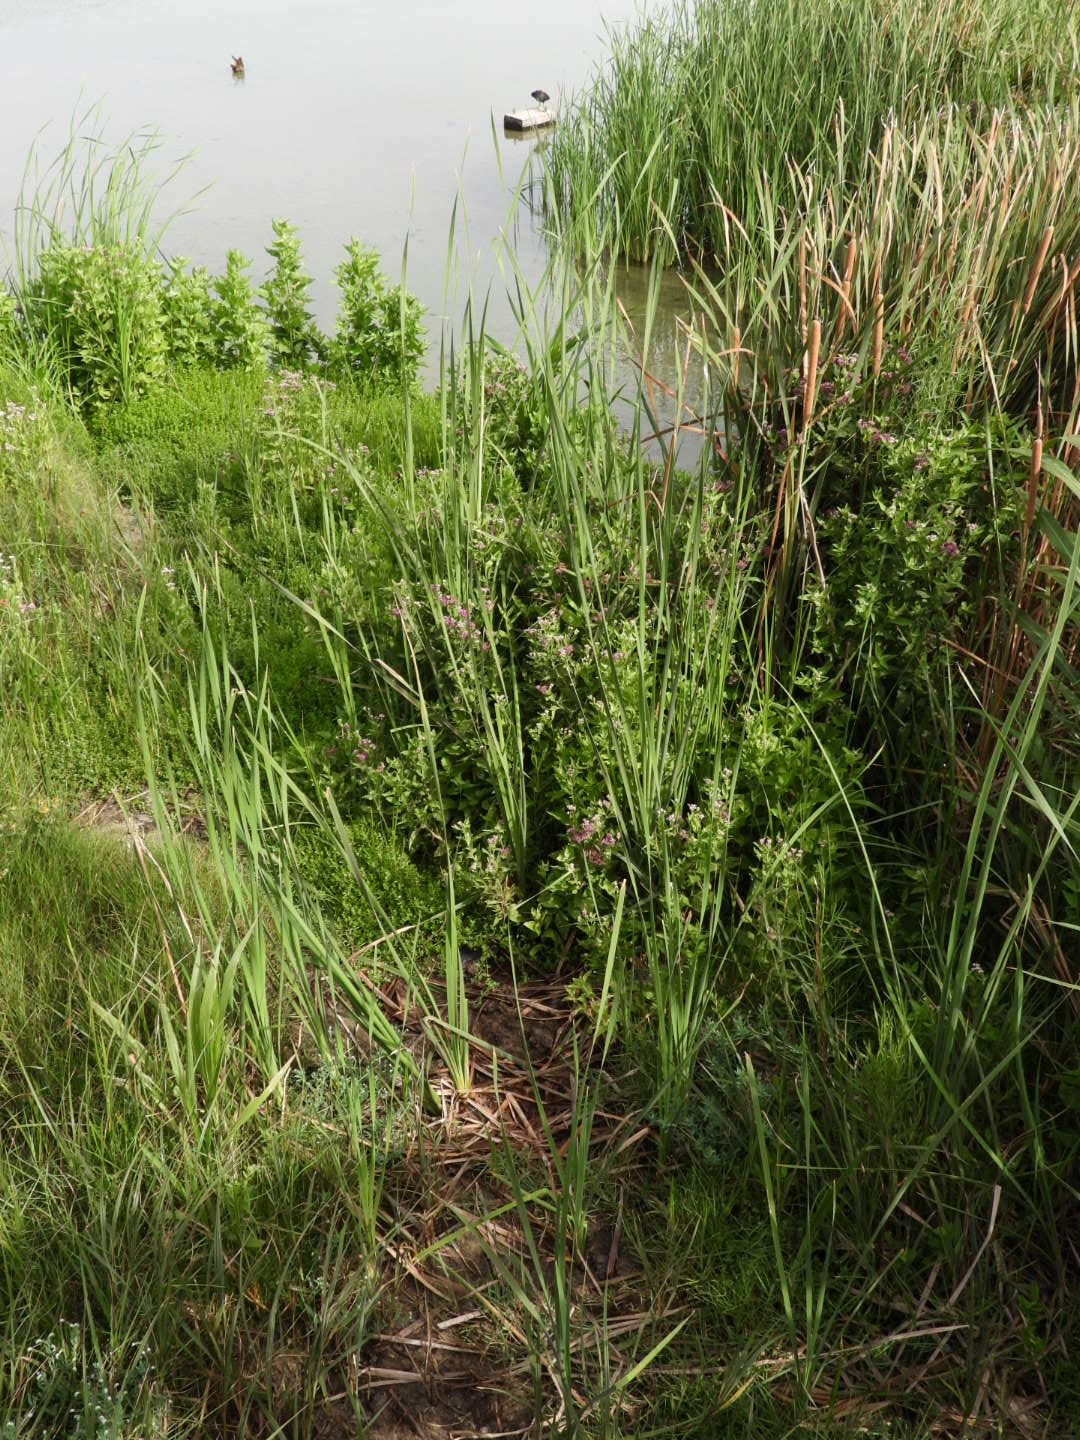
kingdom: Plantae
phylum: Tracheophyta
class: Magnoliopsida
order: Asterales
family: Asteraceae
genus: Pluchea
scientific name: Pluchea odorata
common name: Saltmarsh fleabane
